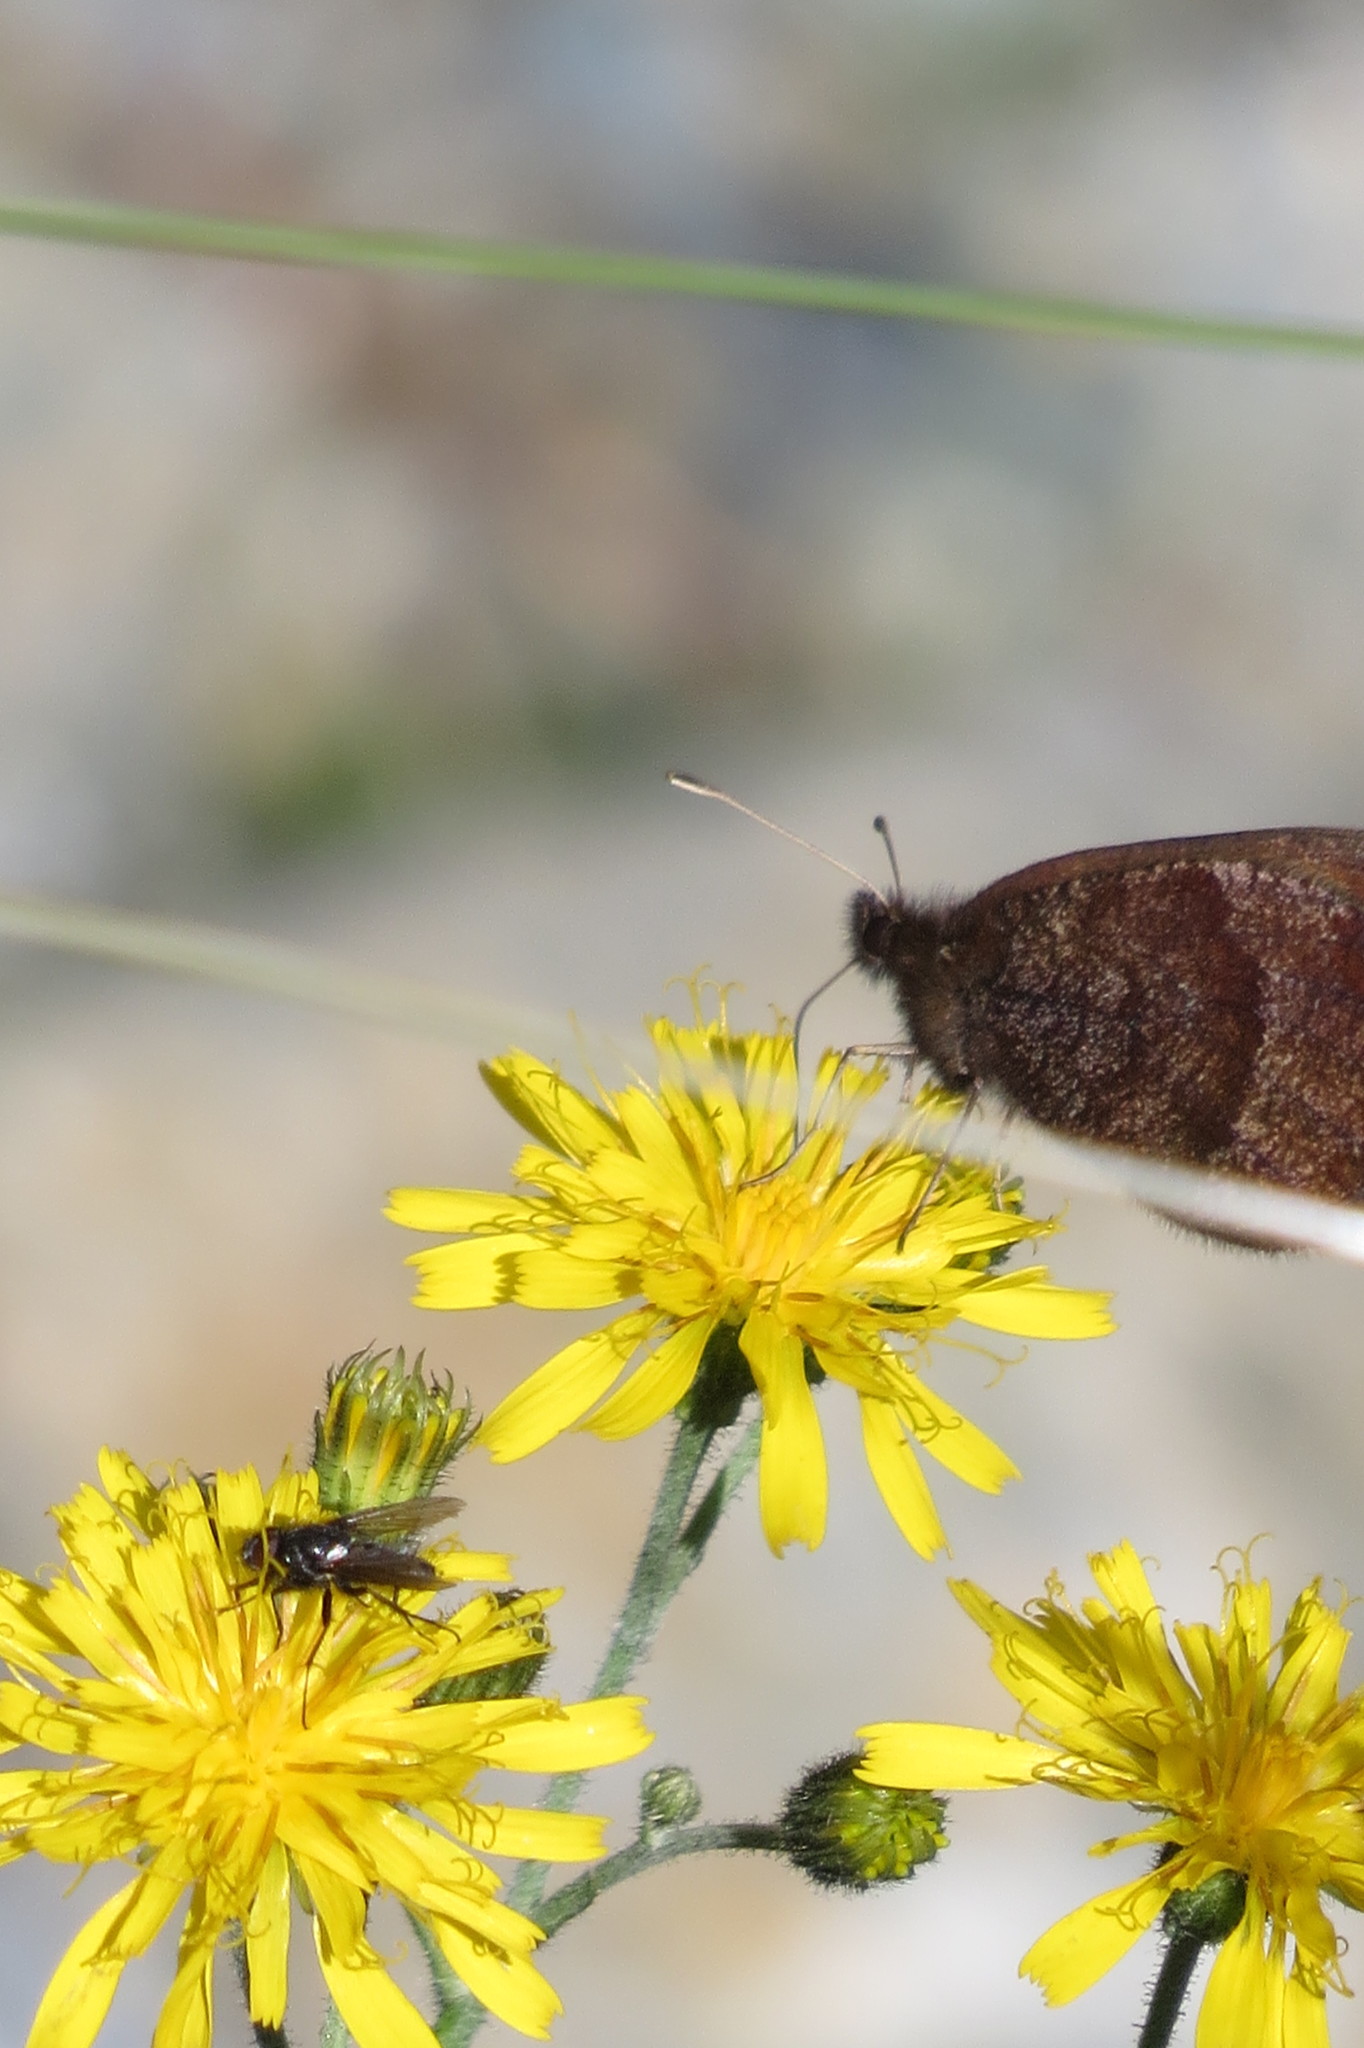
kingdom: Animalia
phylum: Arthropoda
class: Insecta
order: Lepidoptera
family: Nymphalidae
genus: Erebia
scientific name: Erebia pronoe
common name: Water ringlet
